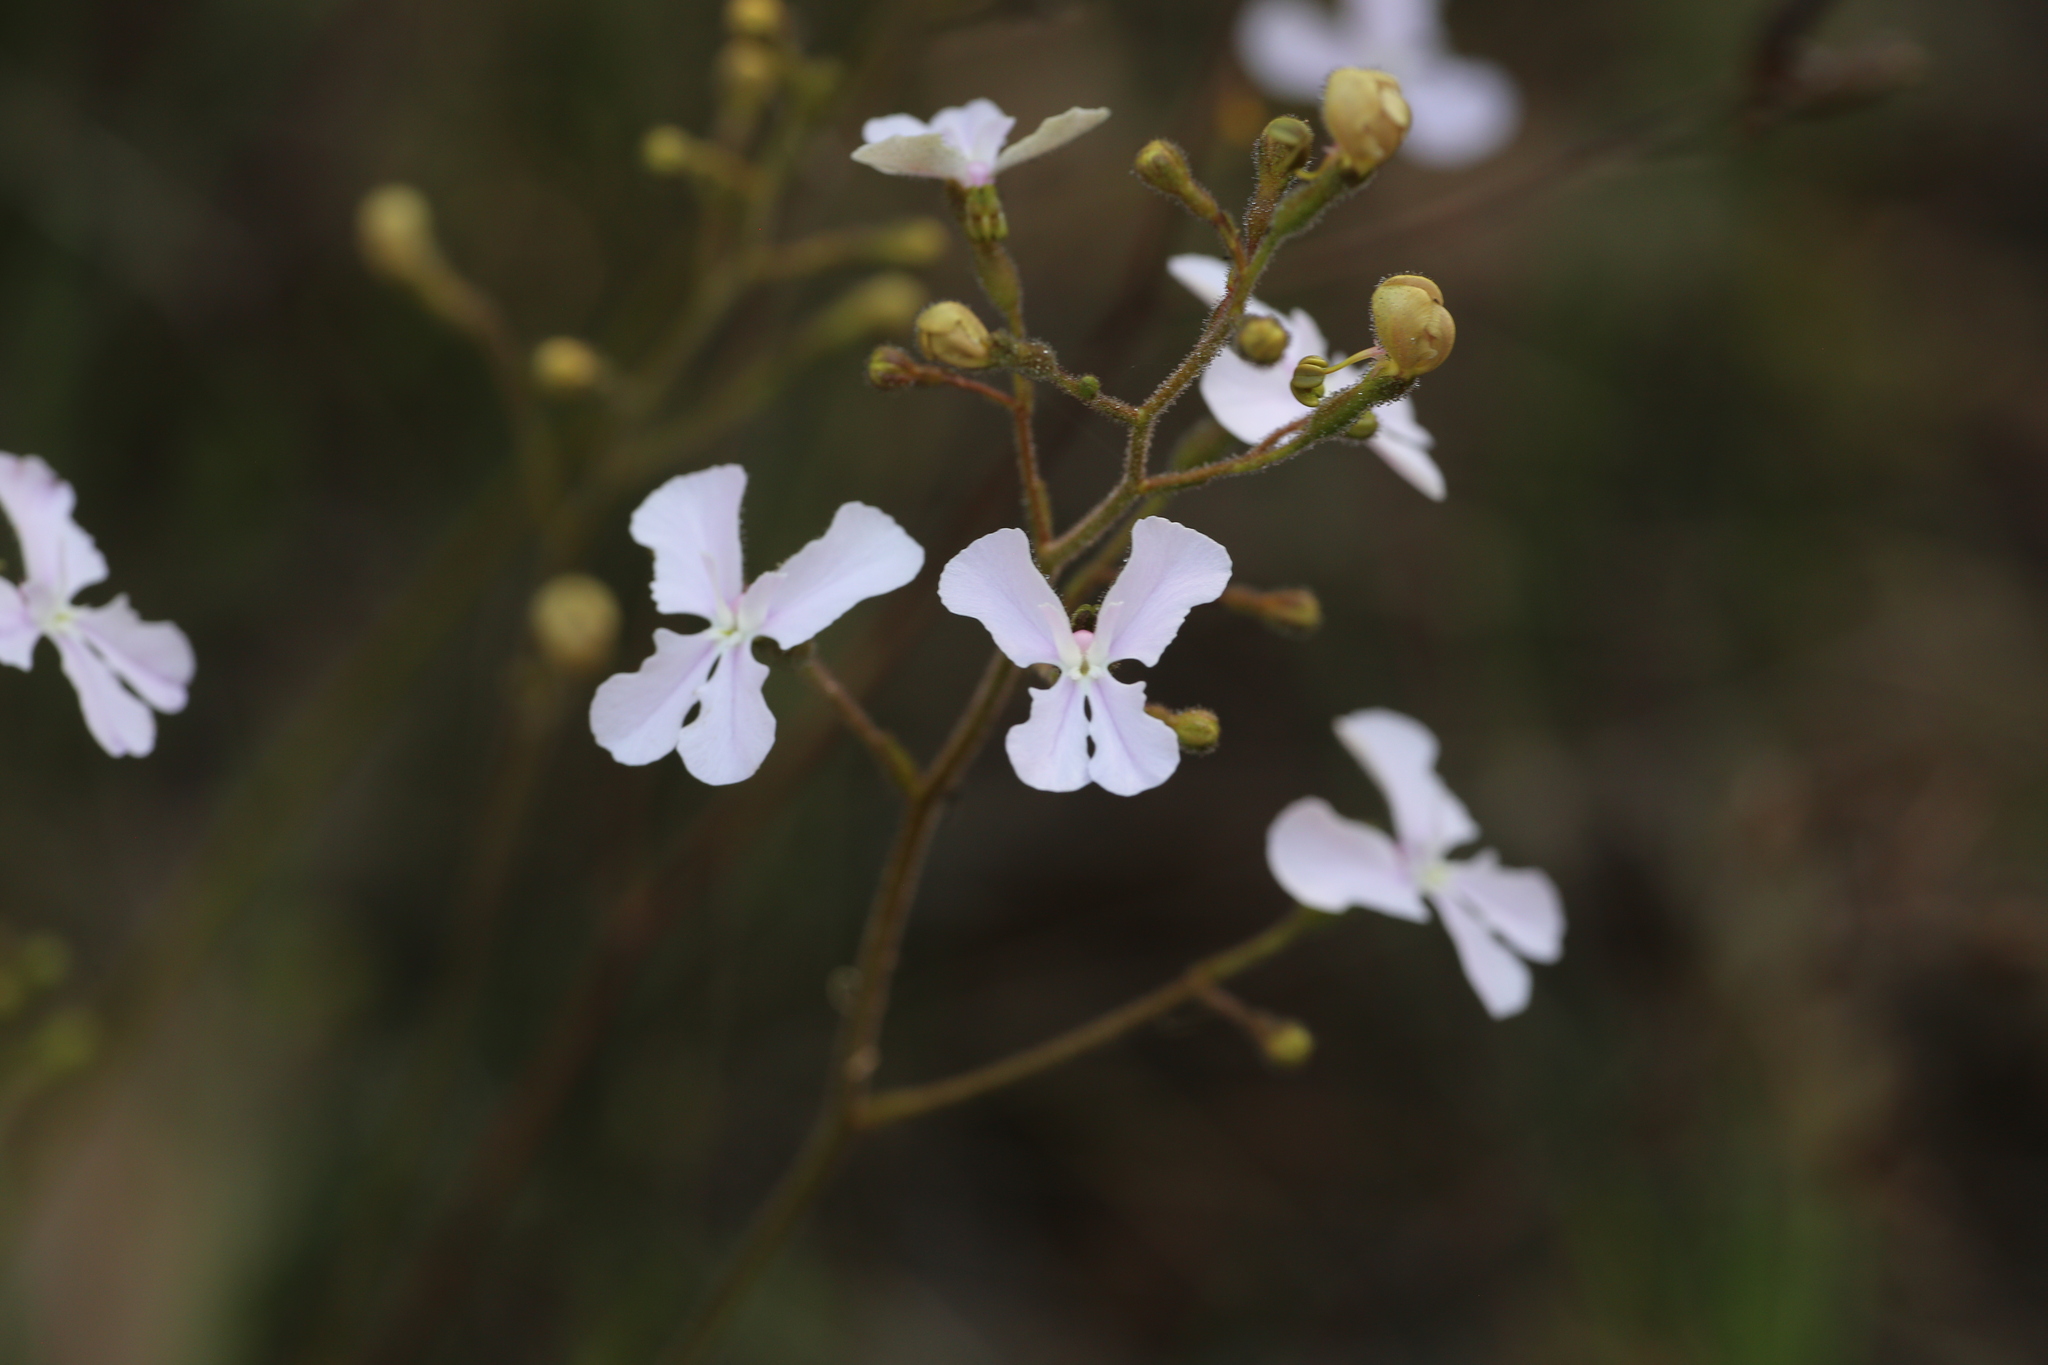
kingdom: Plantae
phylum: Tracheophyta
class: Magnoliopsida
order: Asterales
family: Stylidiaceae
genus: Stylidium
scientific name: Stylidium affine
